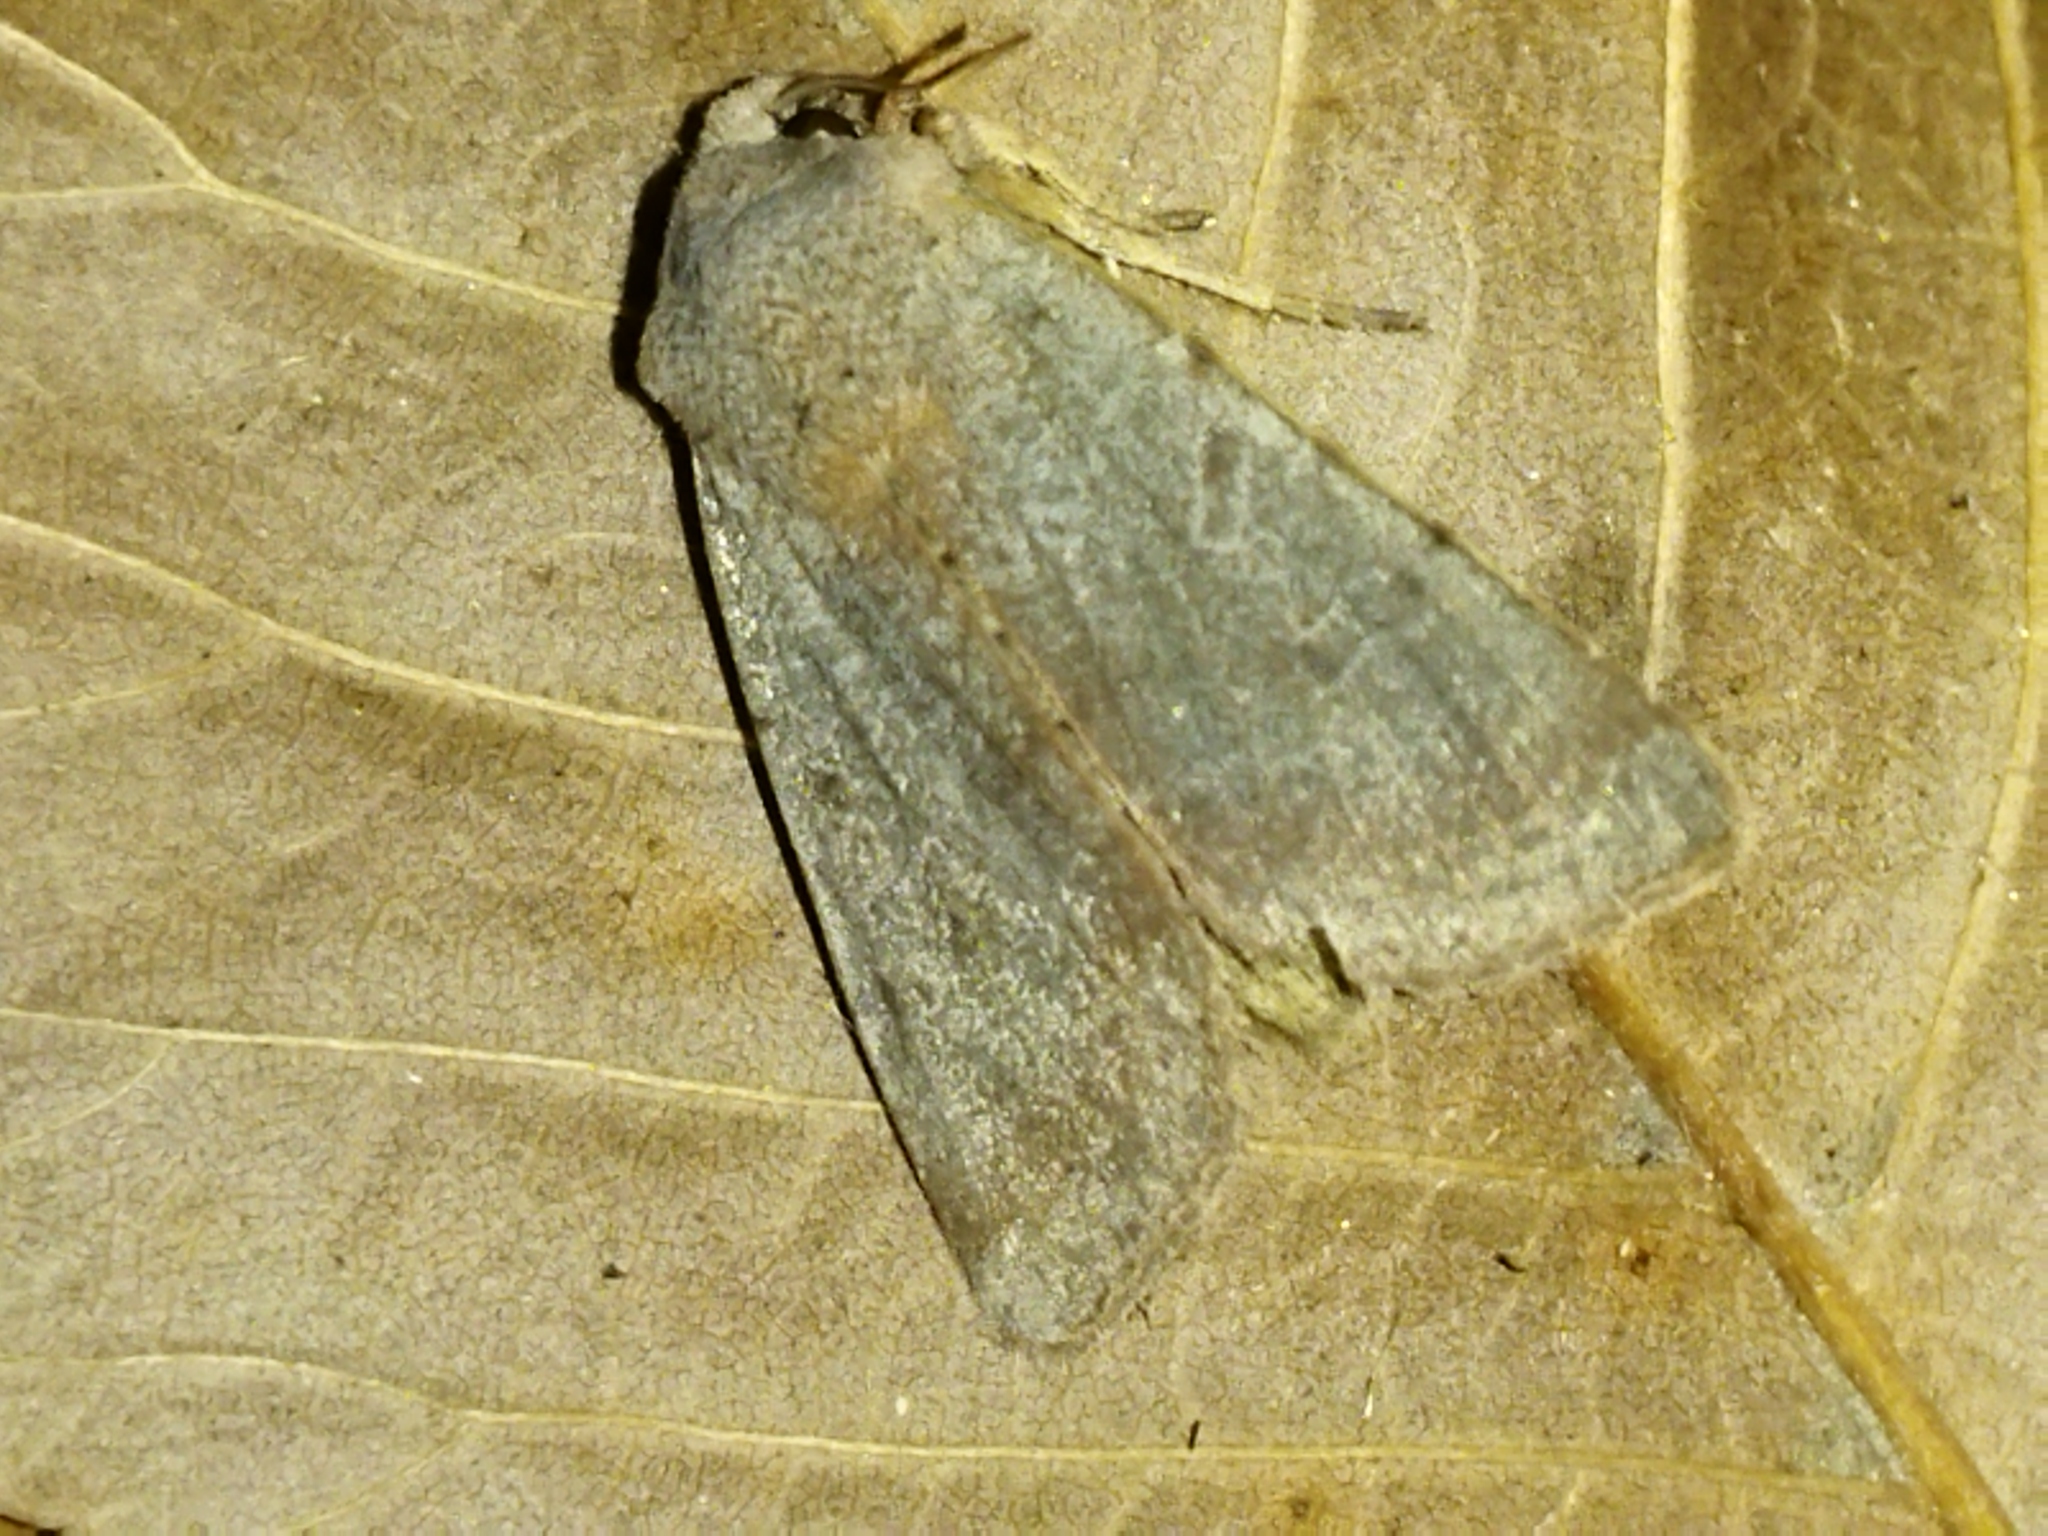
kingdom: Animalia
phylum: Arthropoda
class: Insecta
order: Lepidoptera
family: Noctuidae
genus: Agrochola
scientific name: Agrochola lychnidis
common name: Beaded chestnut
